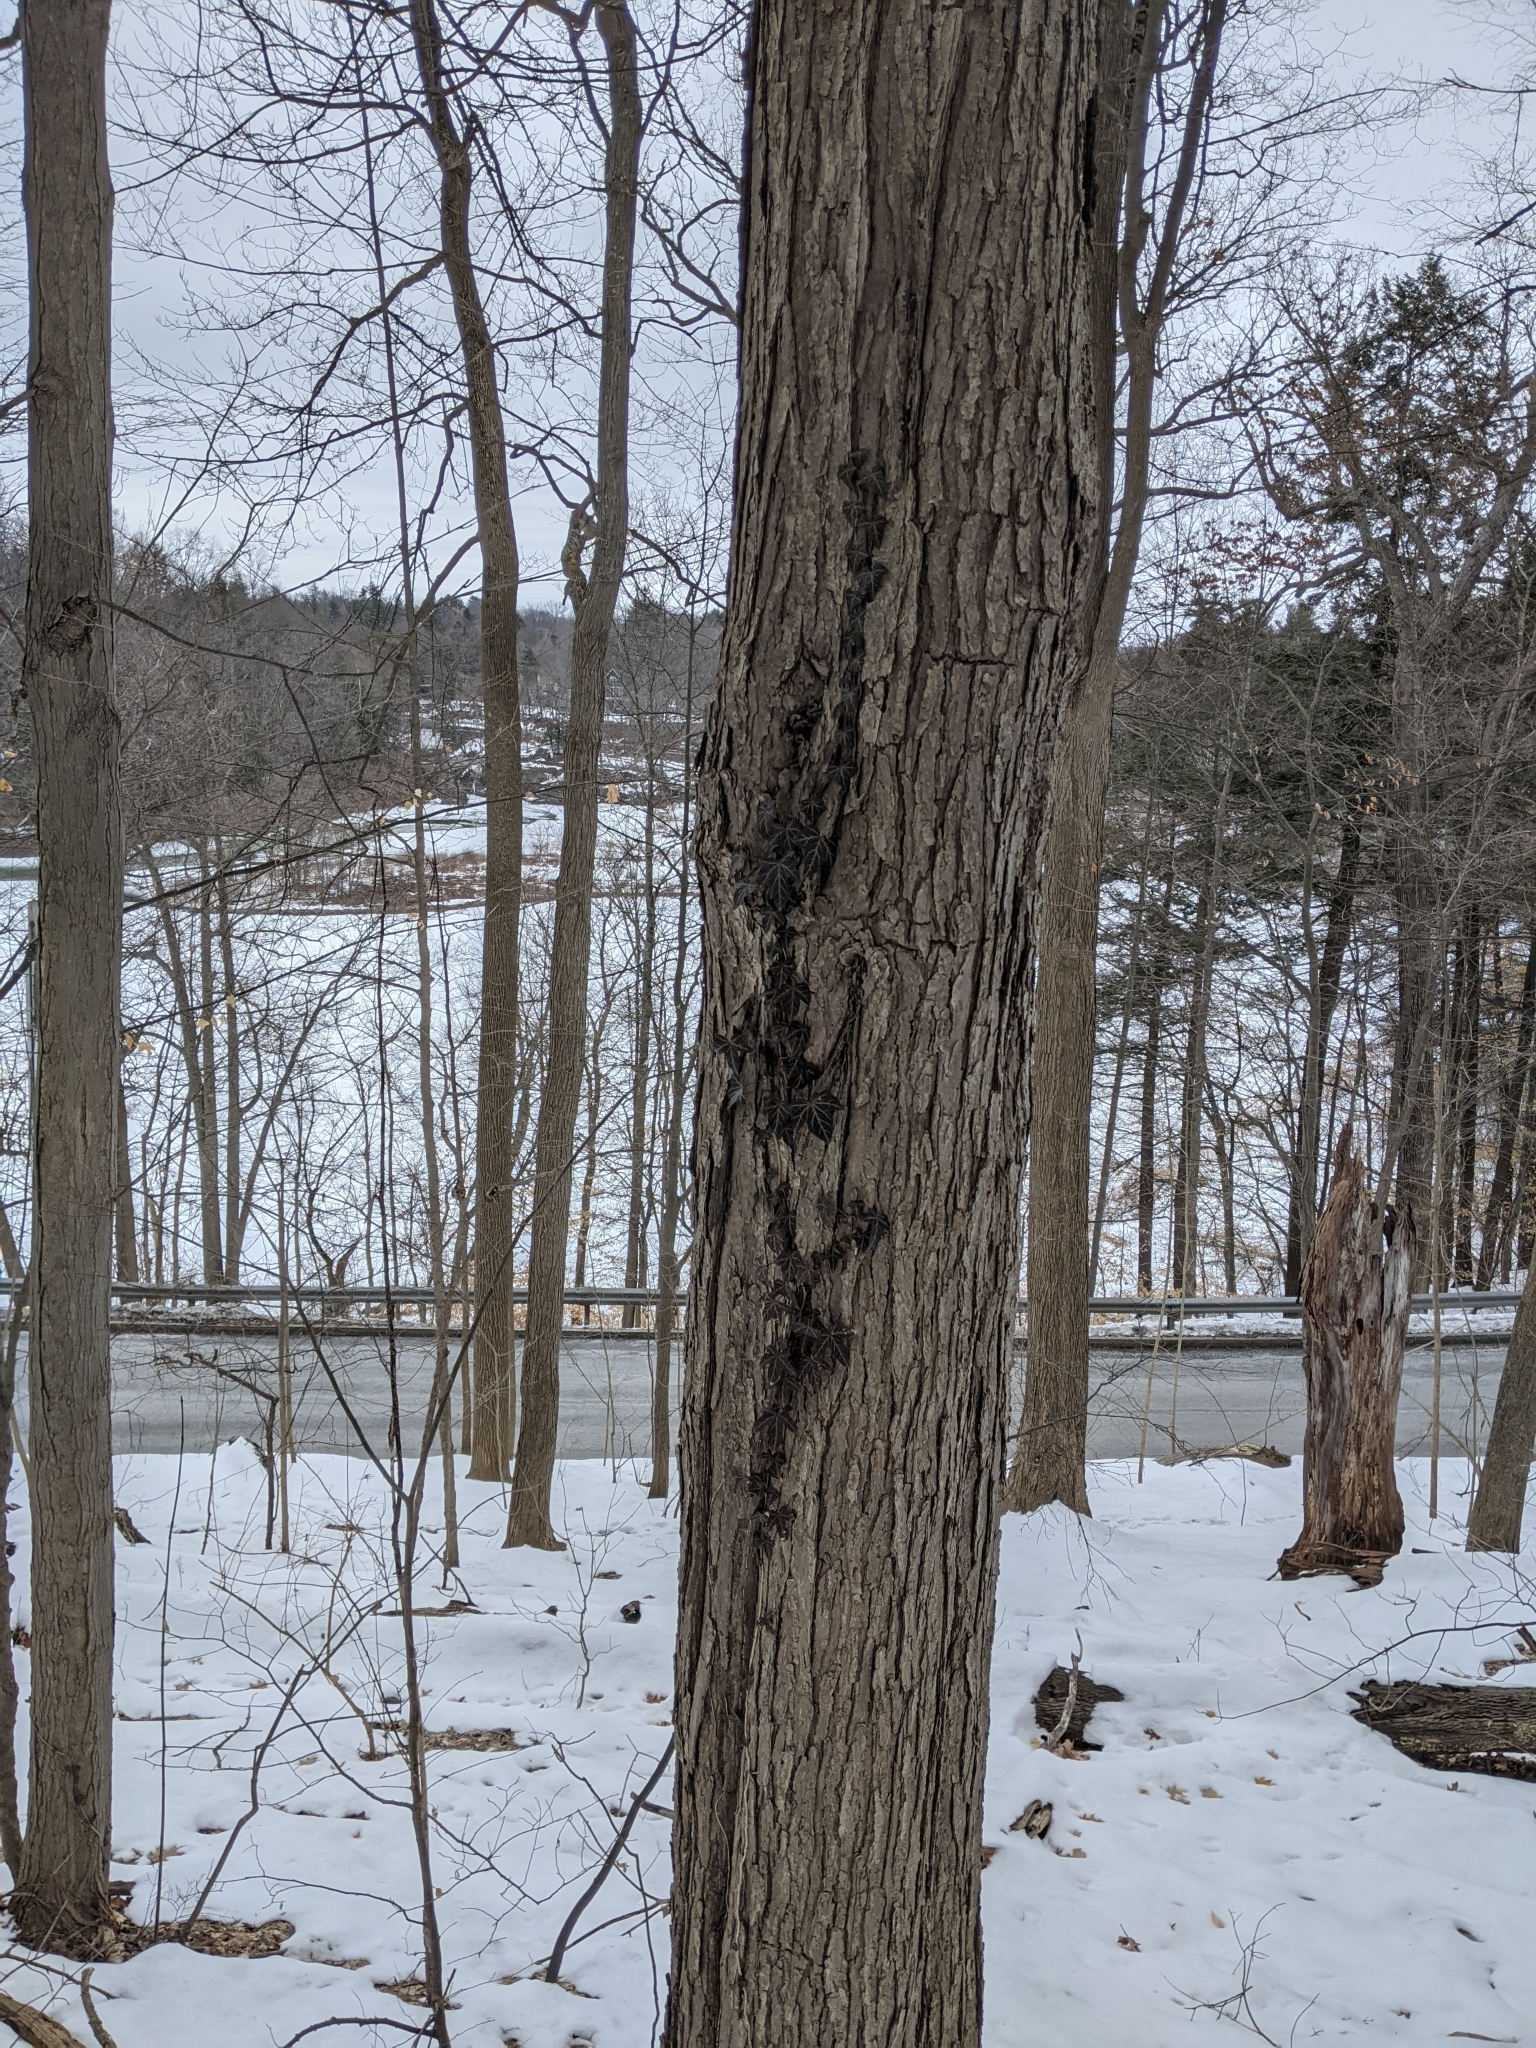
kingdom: Plantae
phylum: Tracheophyta
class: Magnoliopsida
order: Apiales
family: Araliaceae
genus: Hedera
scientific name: Hedera helix
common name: Ivy
